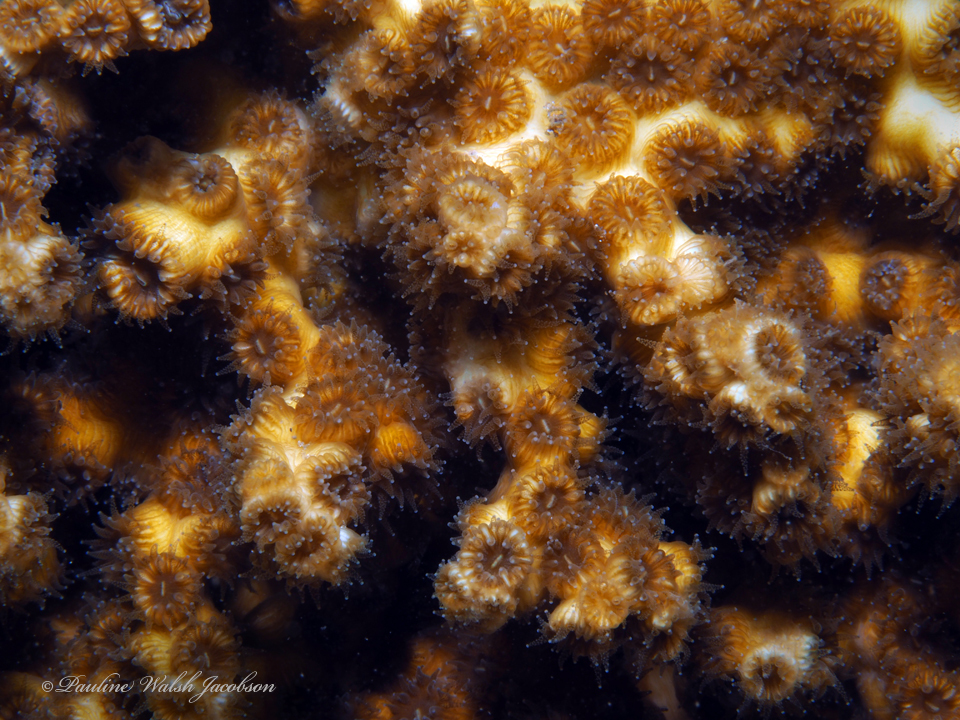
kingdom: Animalia
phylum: Cnidaria
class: Anthozoa
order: Scleractinia
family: Cladocoridae
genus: Cladocora
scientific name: Cladocora arbuscula
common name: Tube coral
